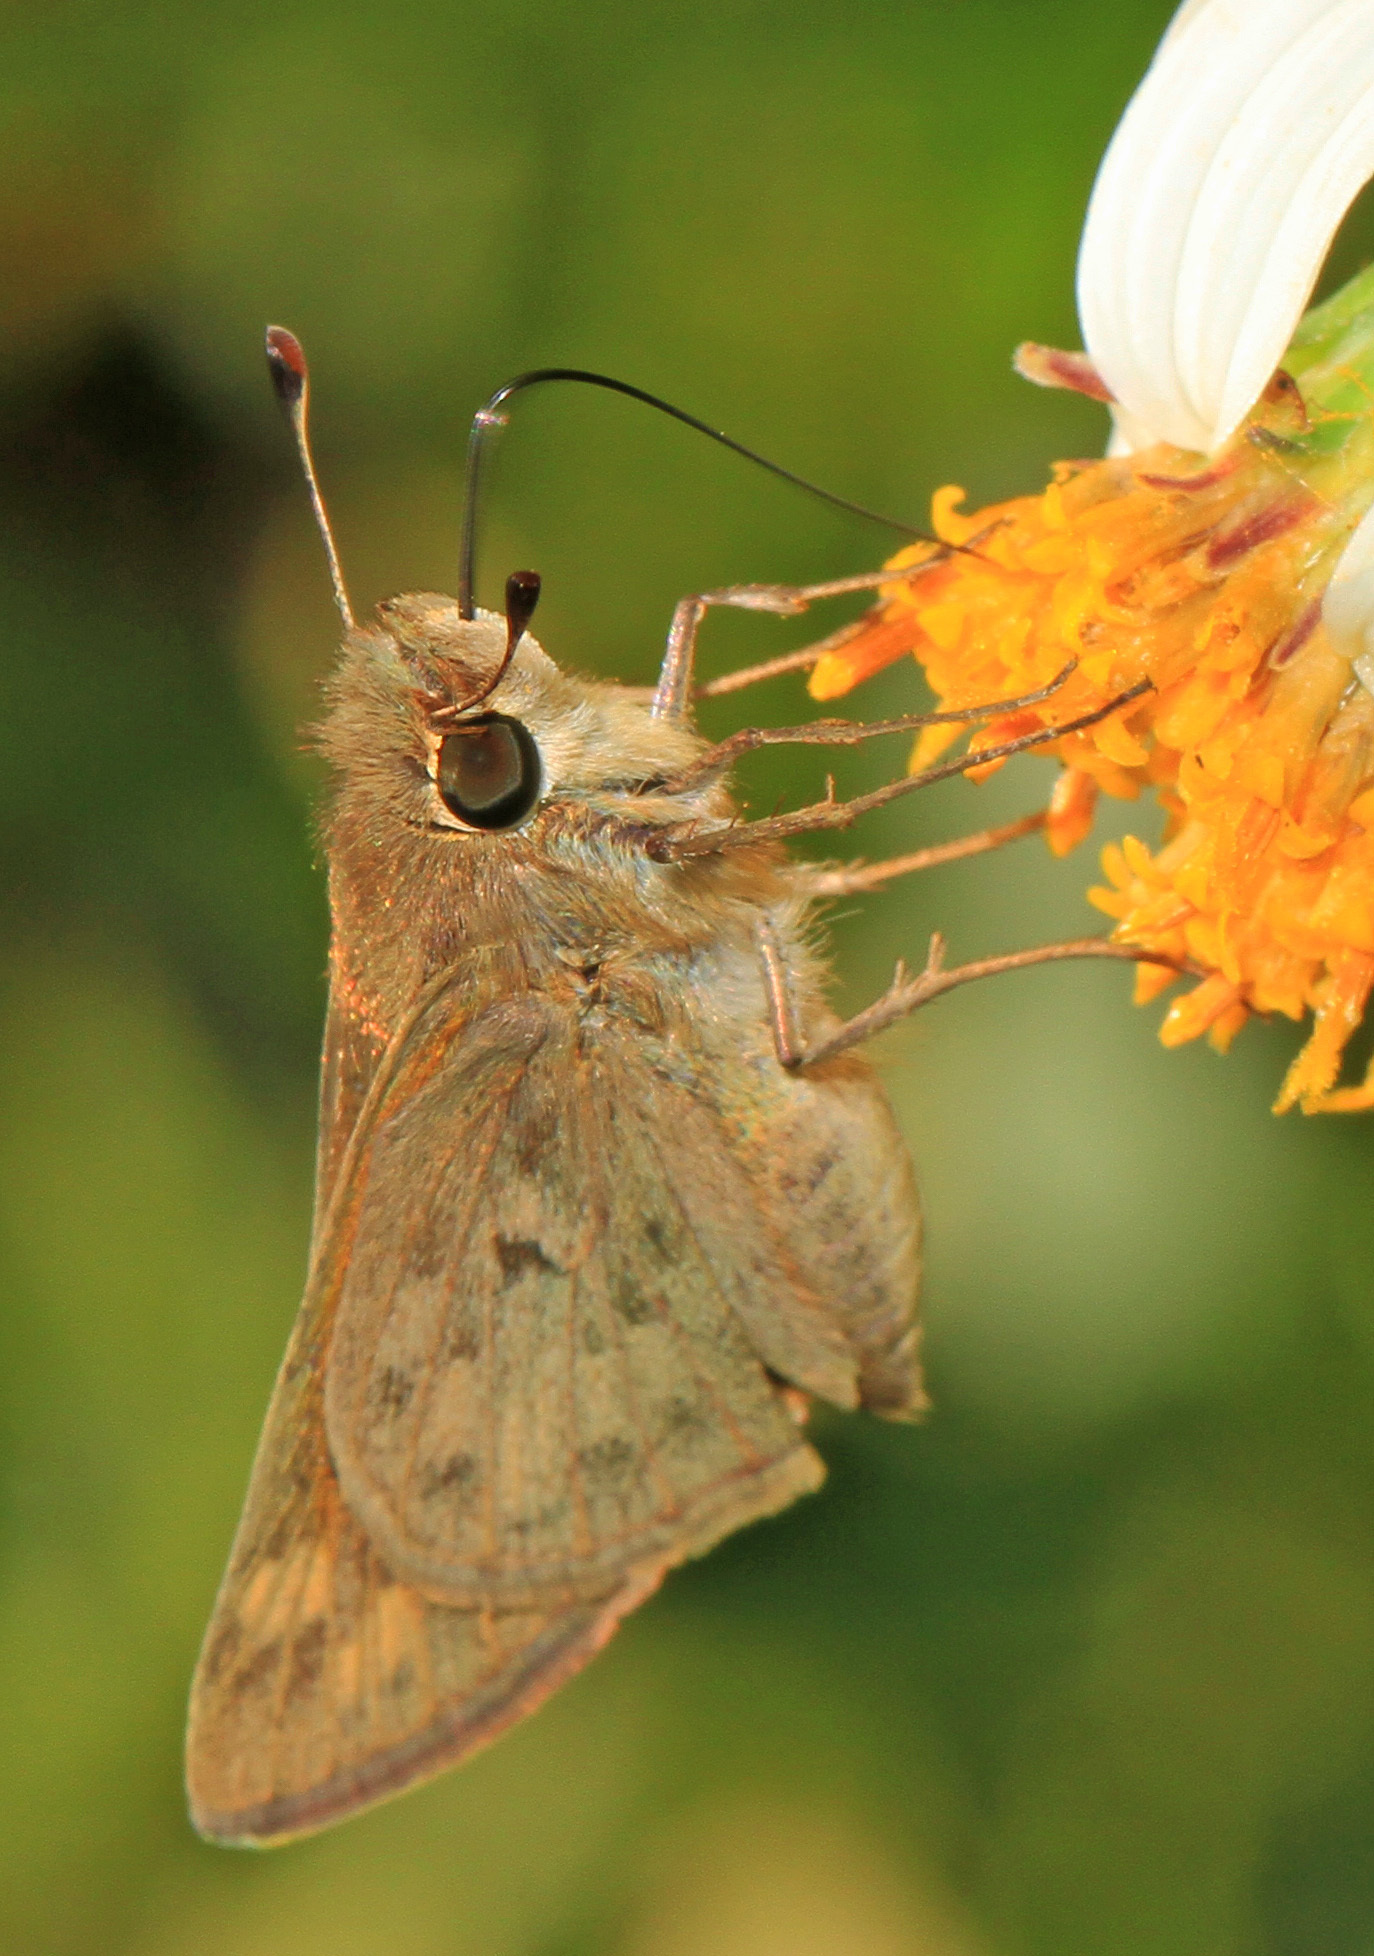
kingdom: Animalia
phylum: Arthropoda
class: Insecta
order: Lepidoptera
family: Hesperiidae
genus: Hylephila
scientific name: Hylephila phyleus
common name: Fiery skipper
